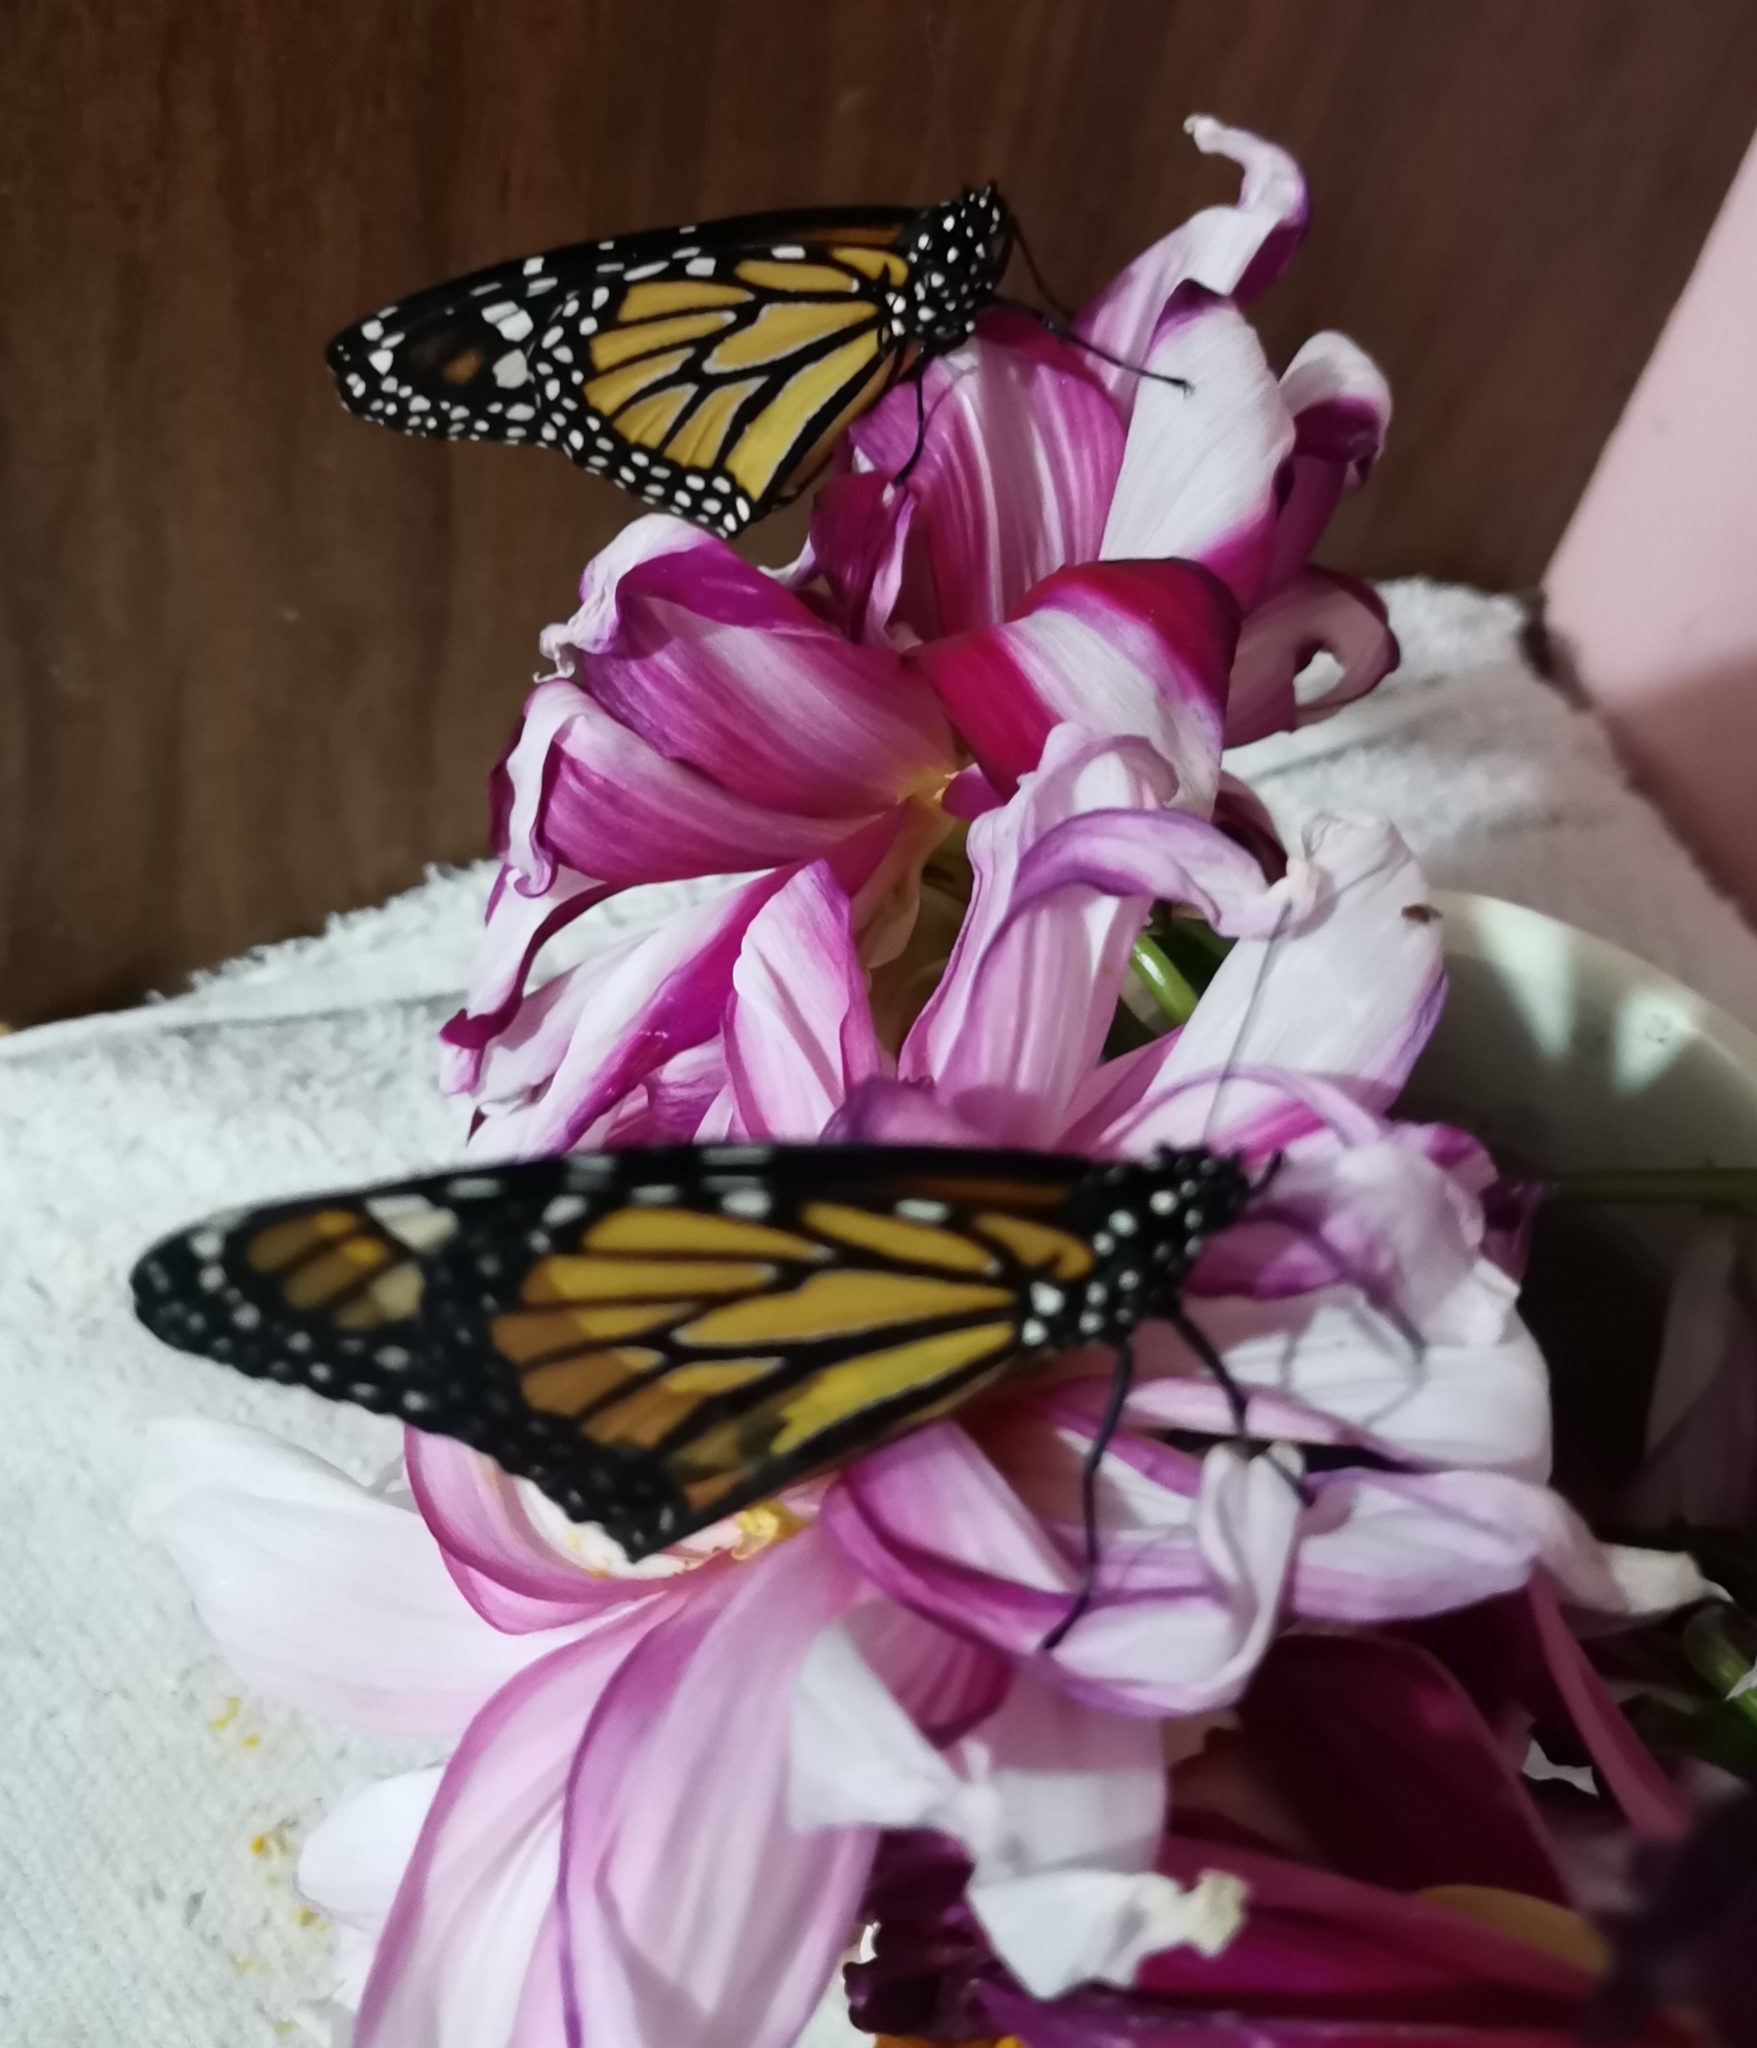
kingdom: Animalia
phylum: Arthropoda
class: Insecta
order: Lepidoptera
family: Nymphalidae
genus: Danaus
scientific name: Danaus plexippus
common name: Monarch
